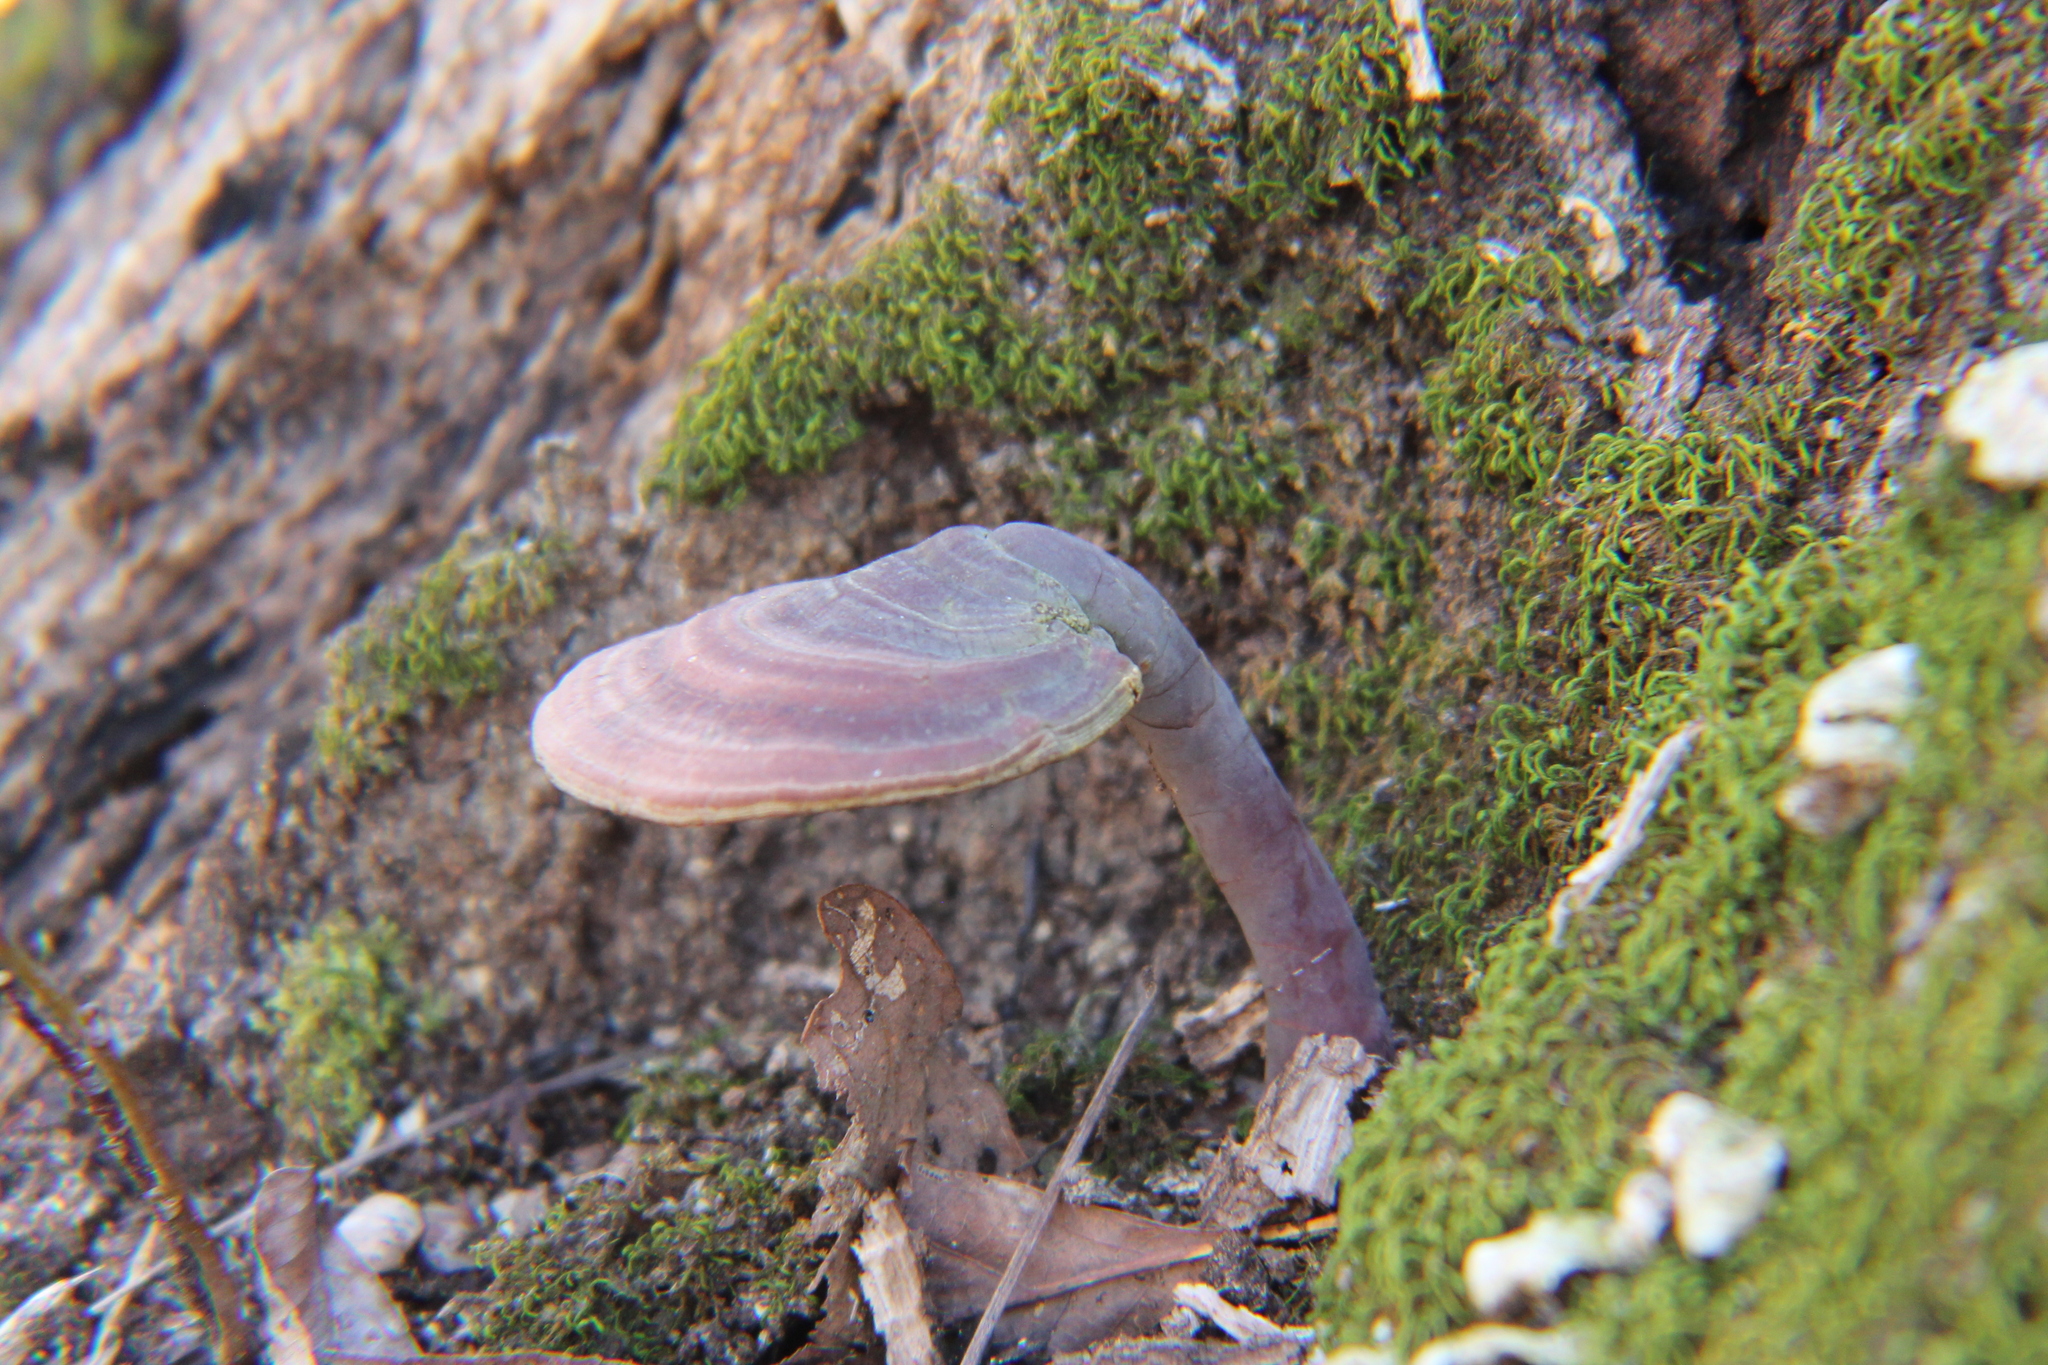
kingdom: Fungi
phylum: Basidiomycota
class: Agaricomycetes
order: Polyporales
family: Polyporaceae
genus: Ganoderma
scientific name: Ganoderma curtisii
